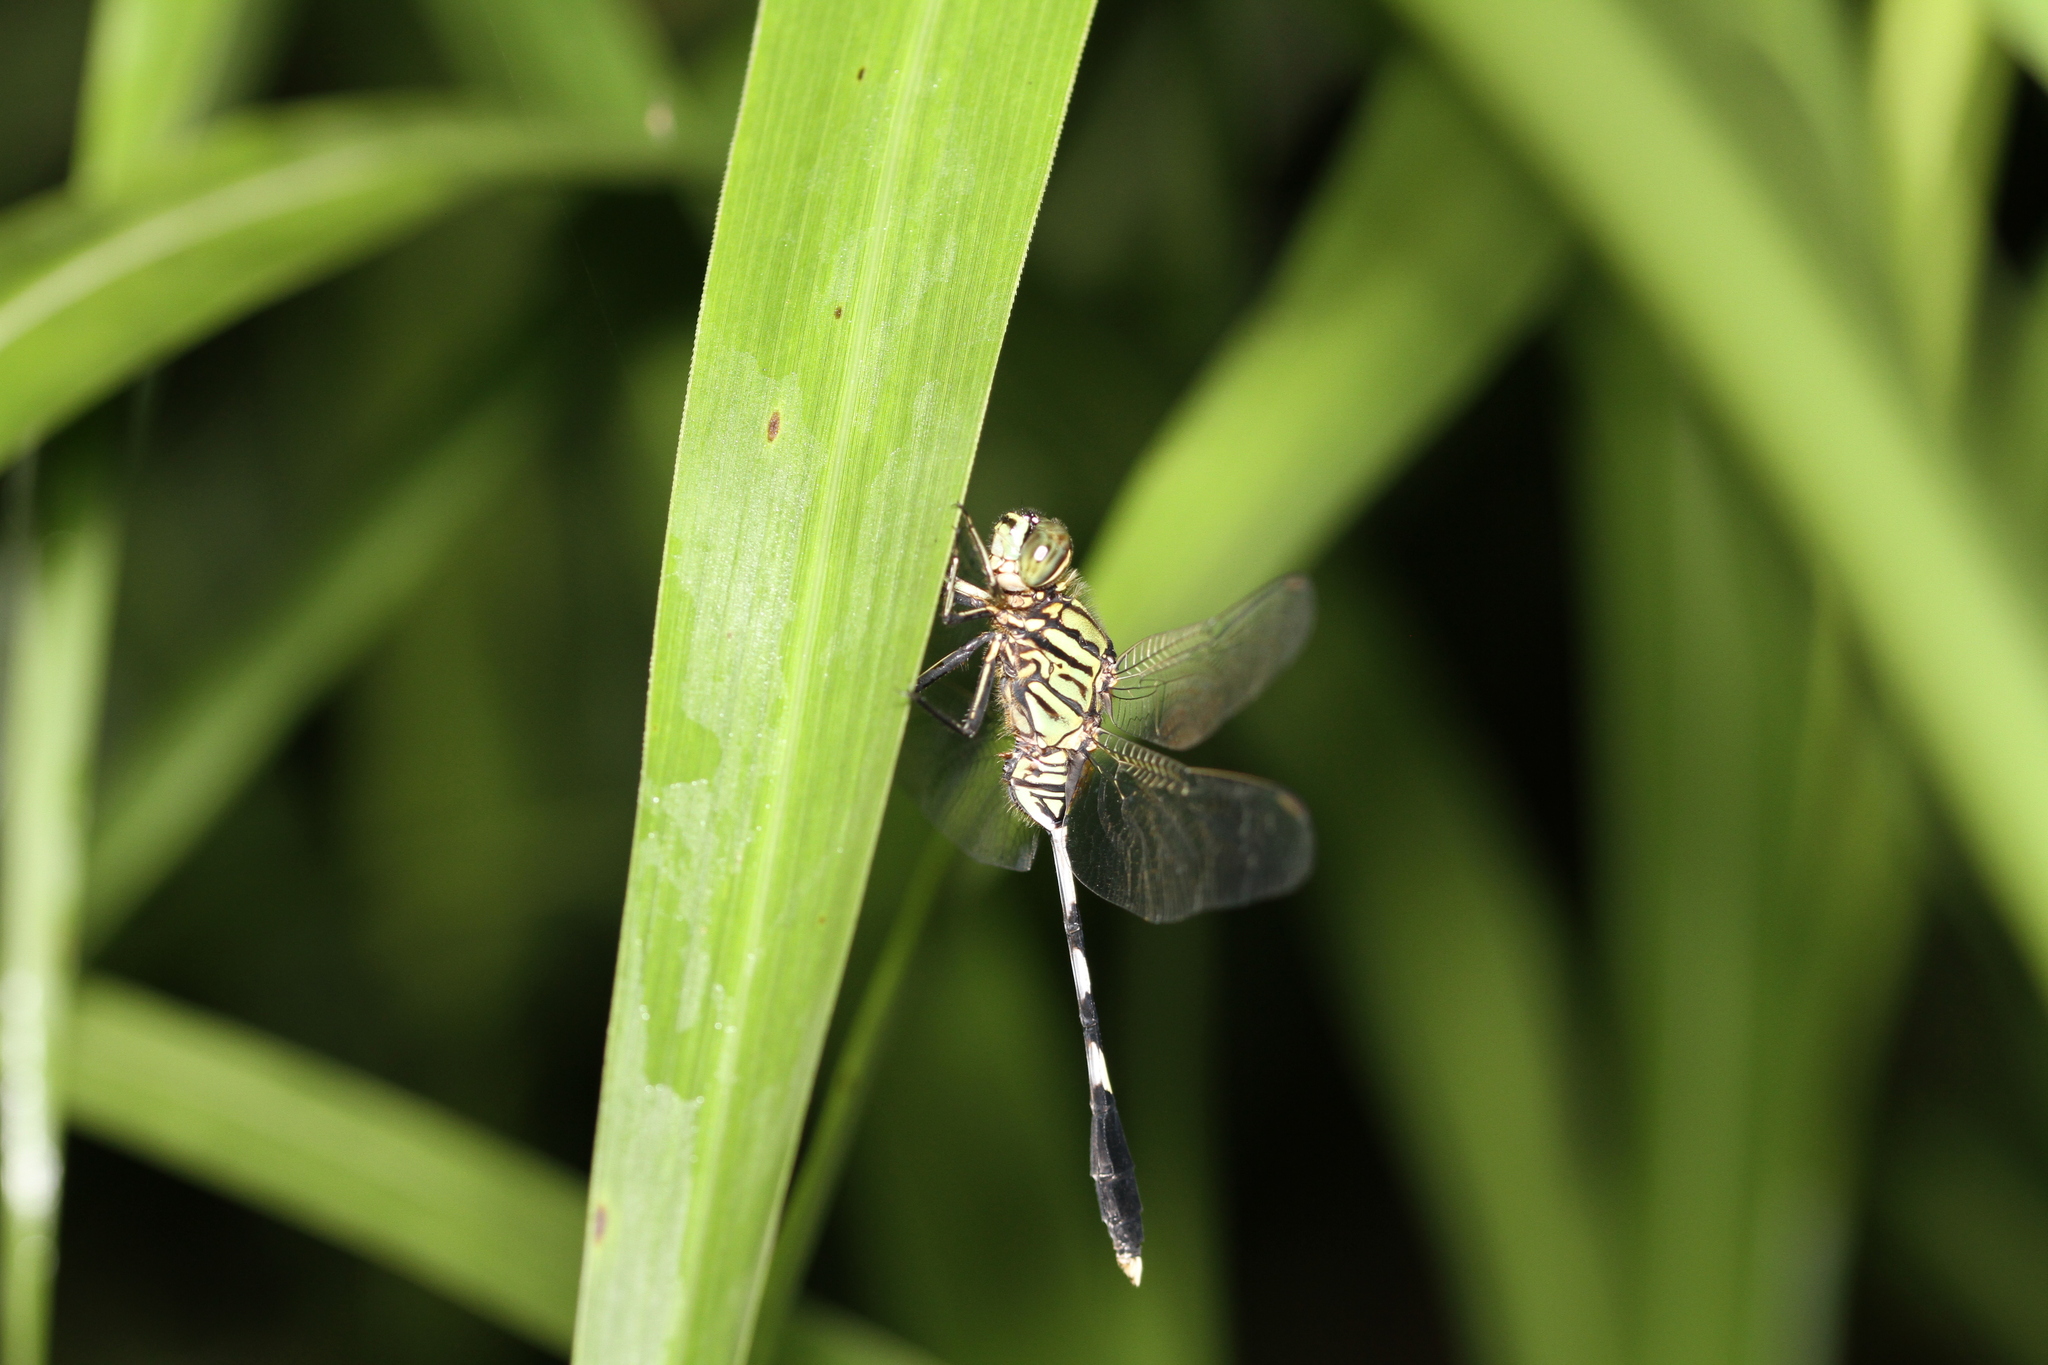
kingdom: Animalia
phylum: Arthropoda
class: Insecta
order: Odonata
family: Libellulidae
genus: Orthetrum
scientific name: Orthetrum sabina
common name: Slender skimmer
